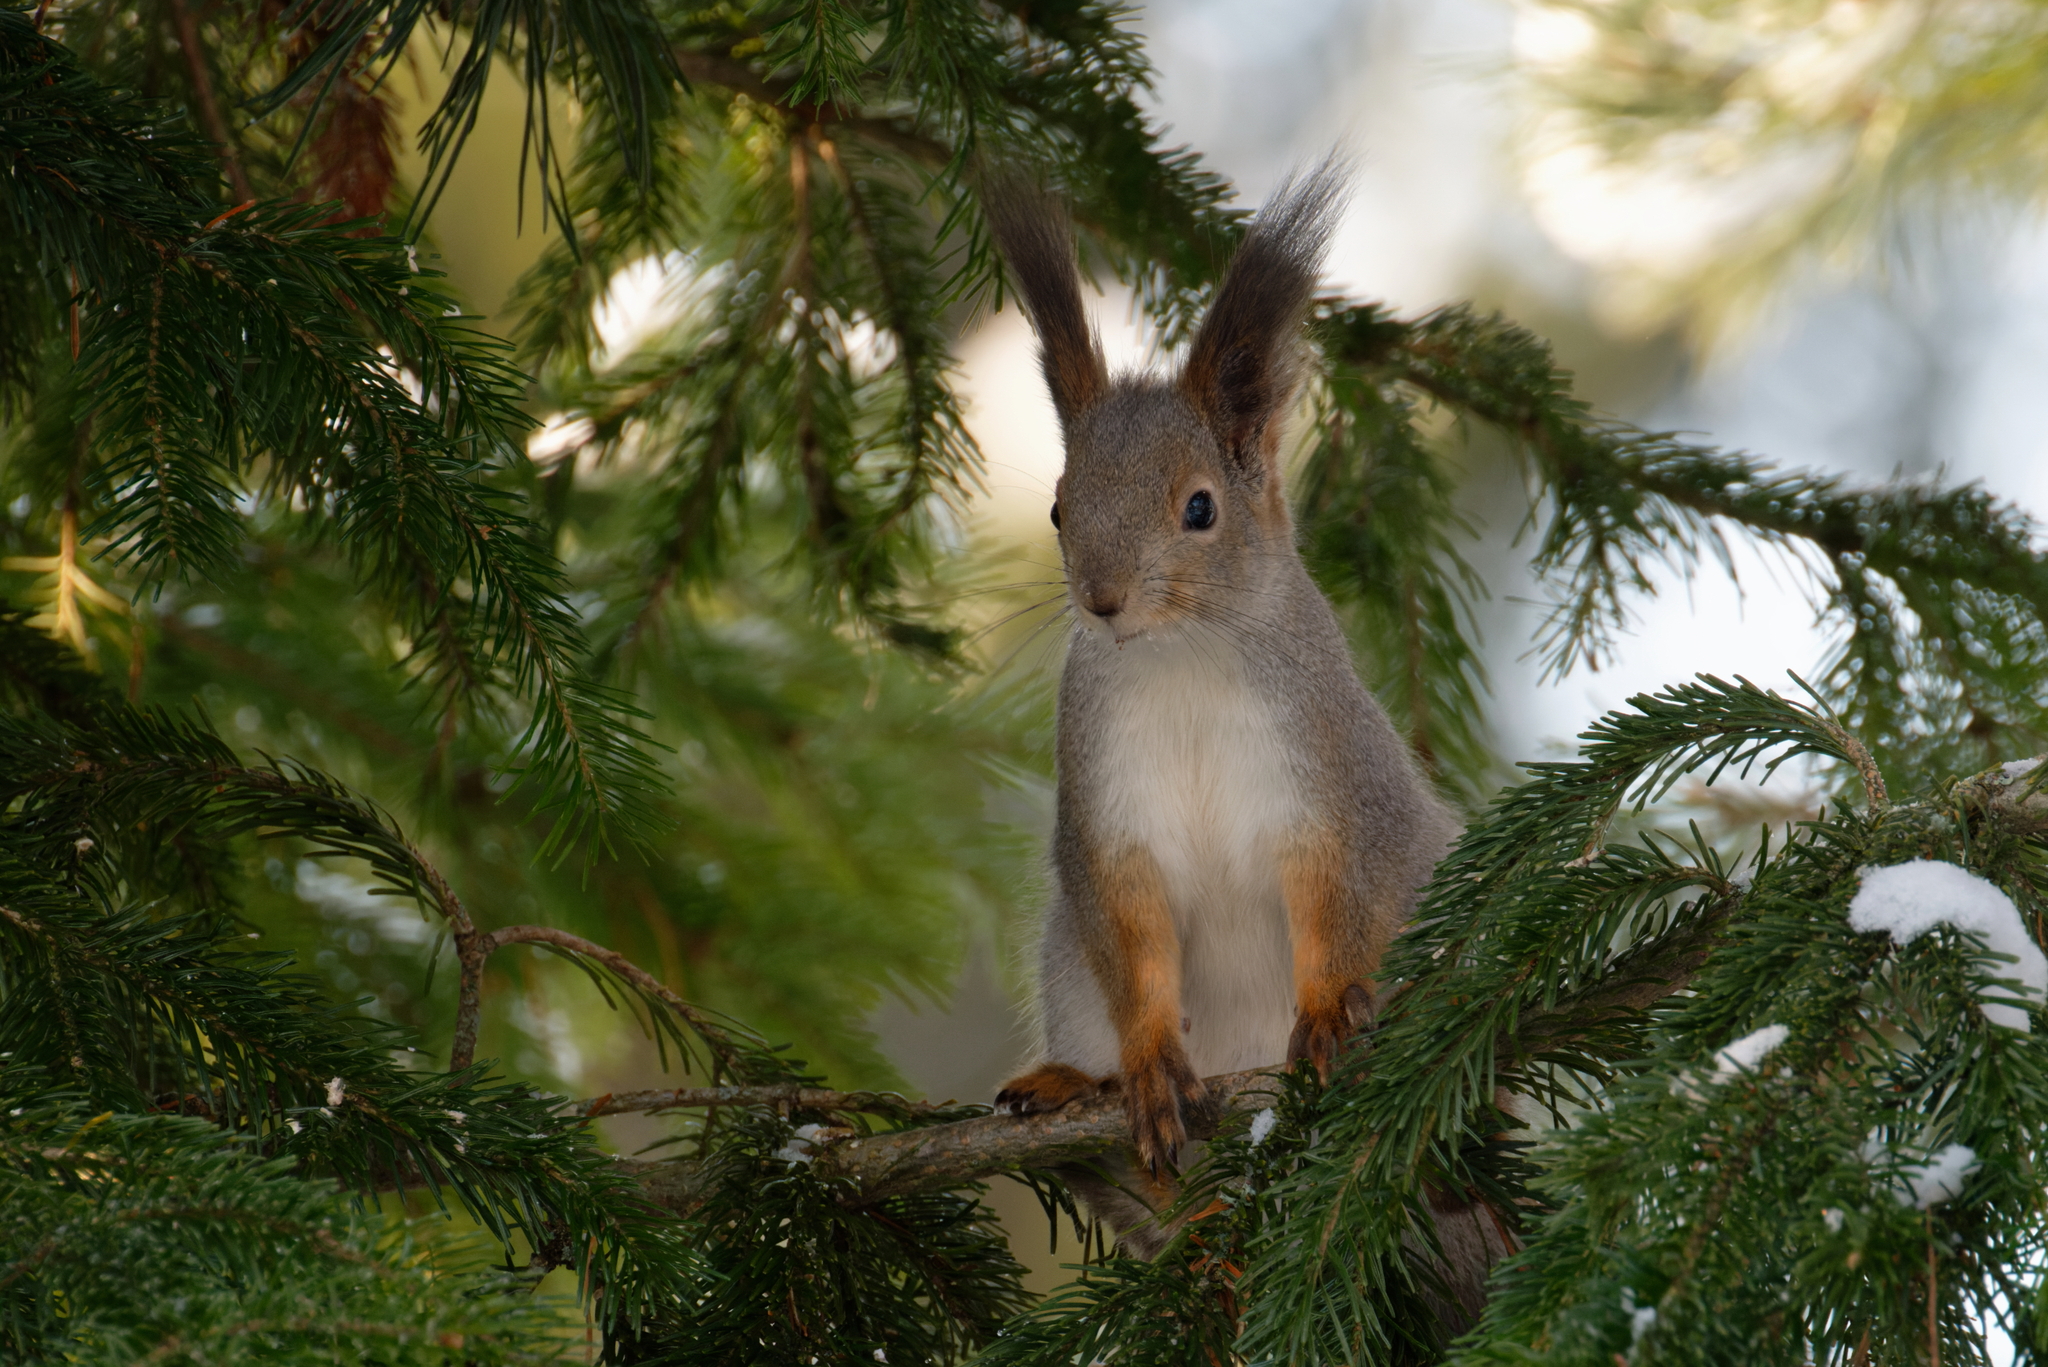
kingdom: Animalia
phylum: Chordata
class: Mammalia
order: Rodentia
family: Sciuridae
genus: Sciurus
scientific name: Sciurus vulgaris
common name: Eurasian red squirrel
